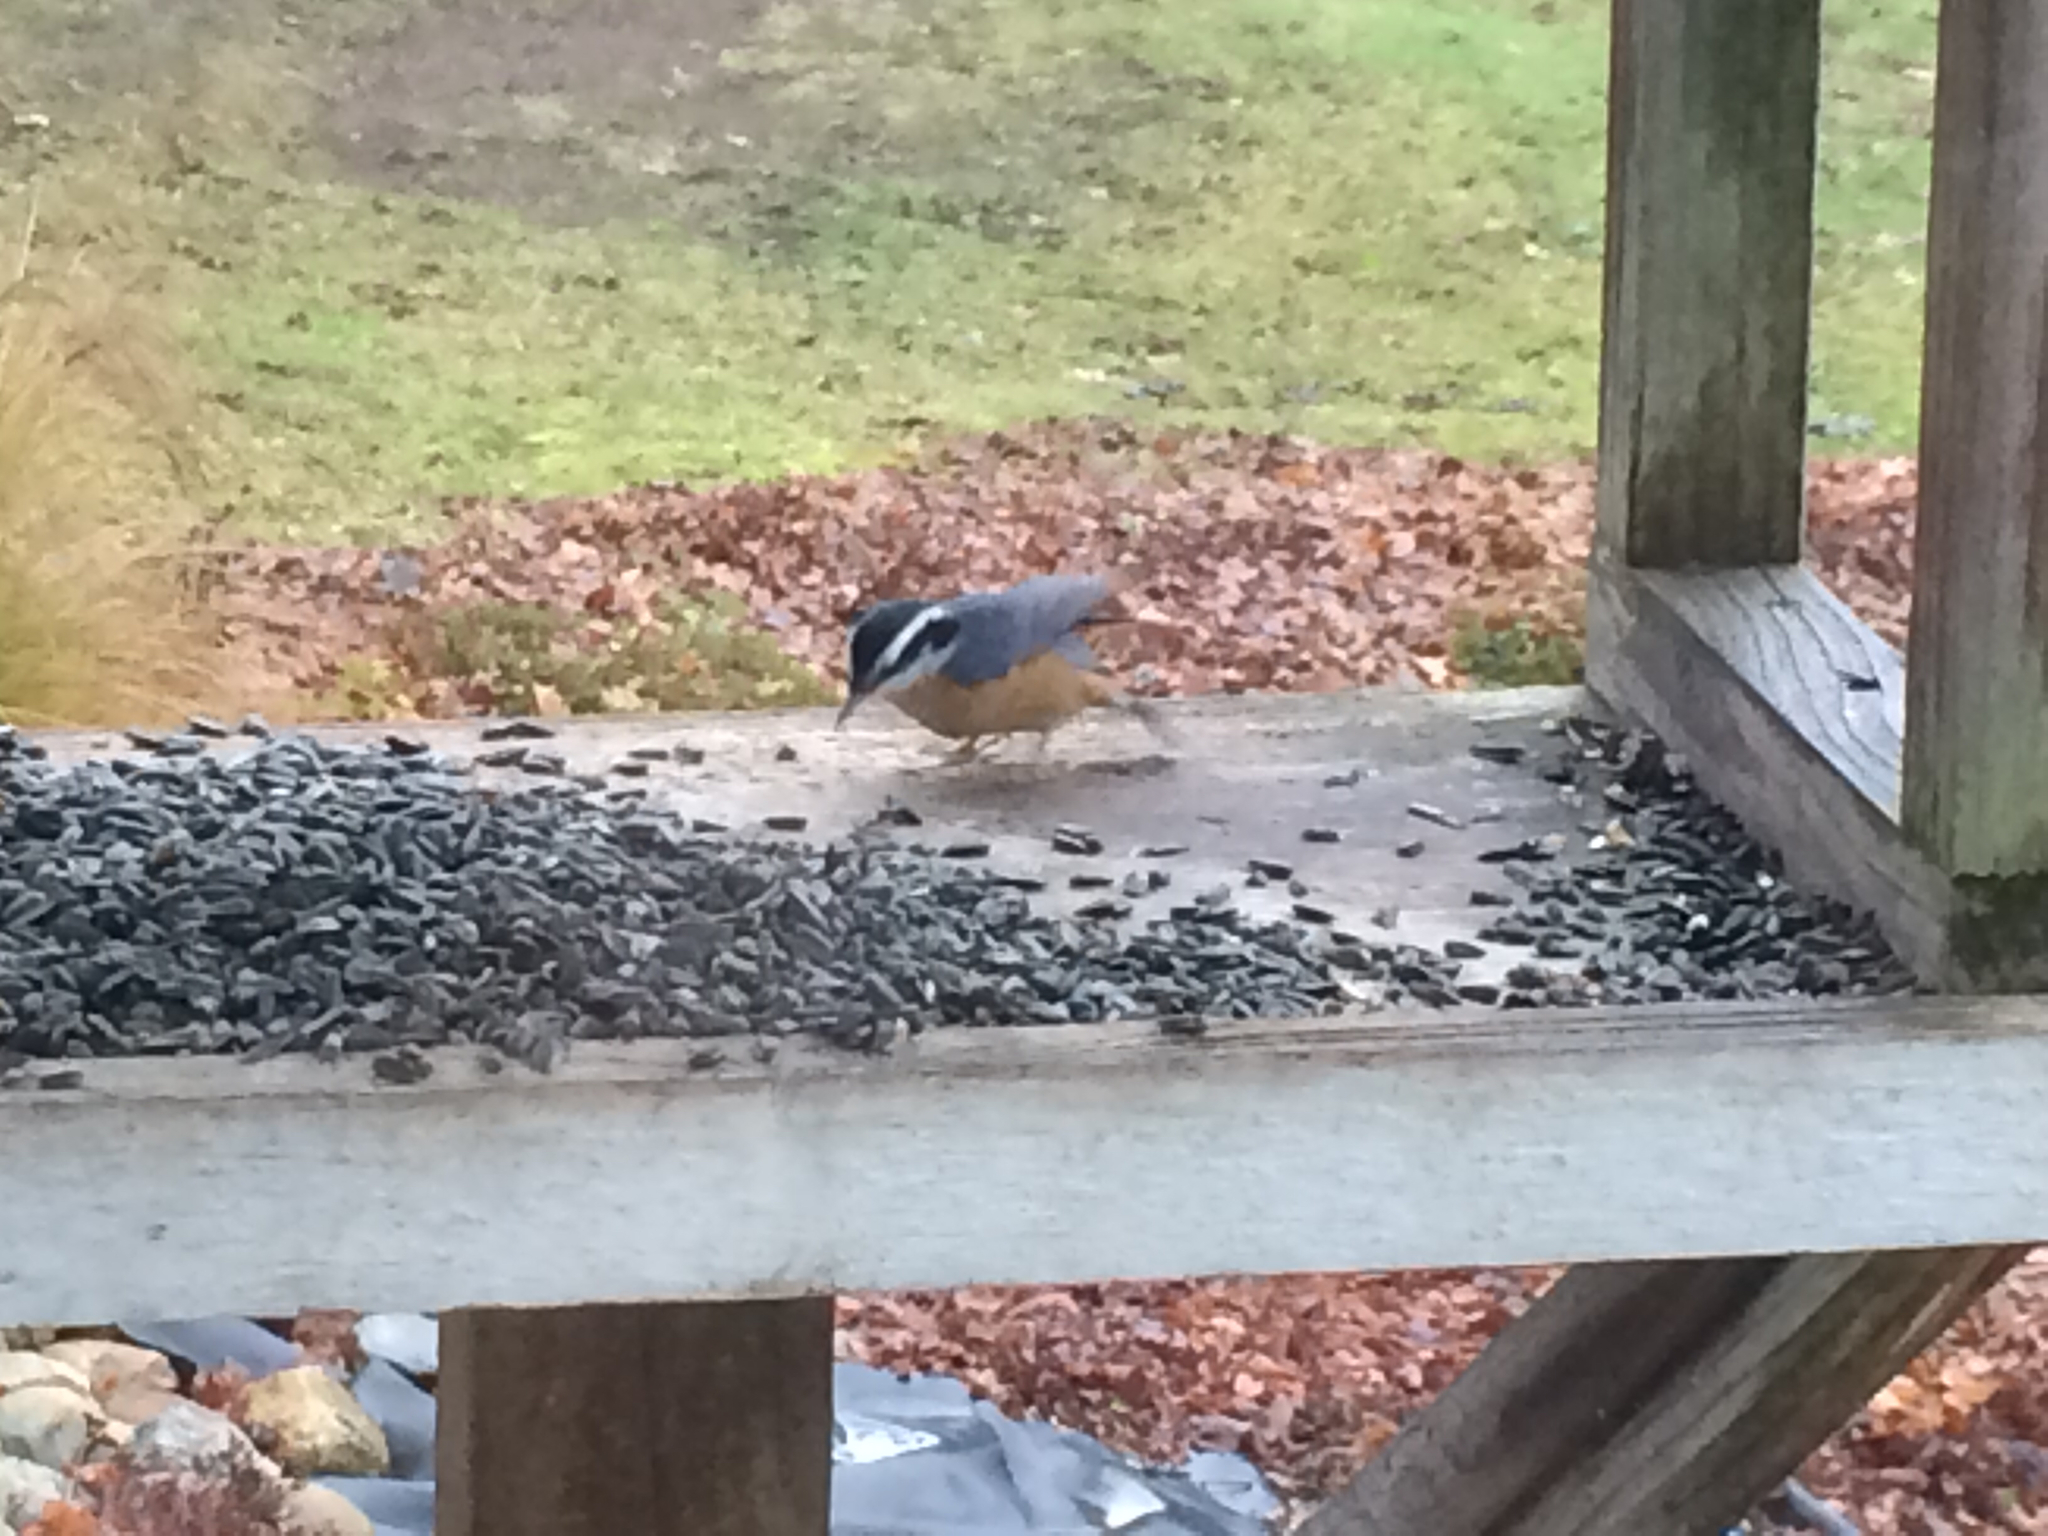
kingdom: Animalia
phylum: Chordata
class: Aves
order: Passeriformes
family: Sittidae
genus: Sitta
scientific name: Sitta canadensis
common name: Red-breasted nuthatch
